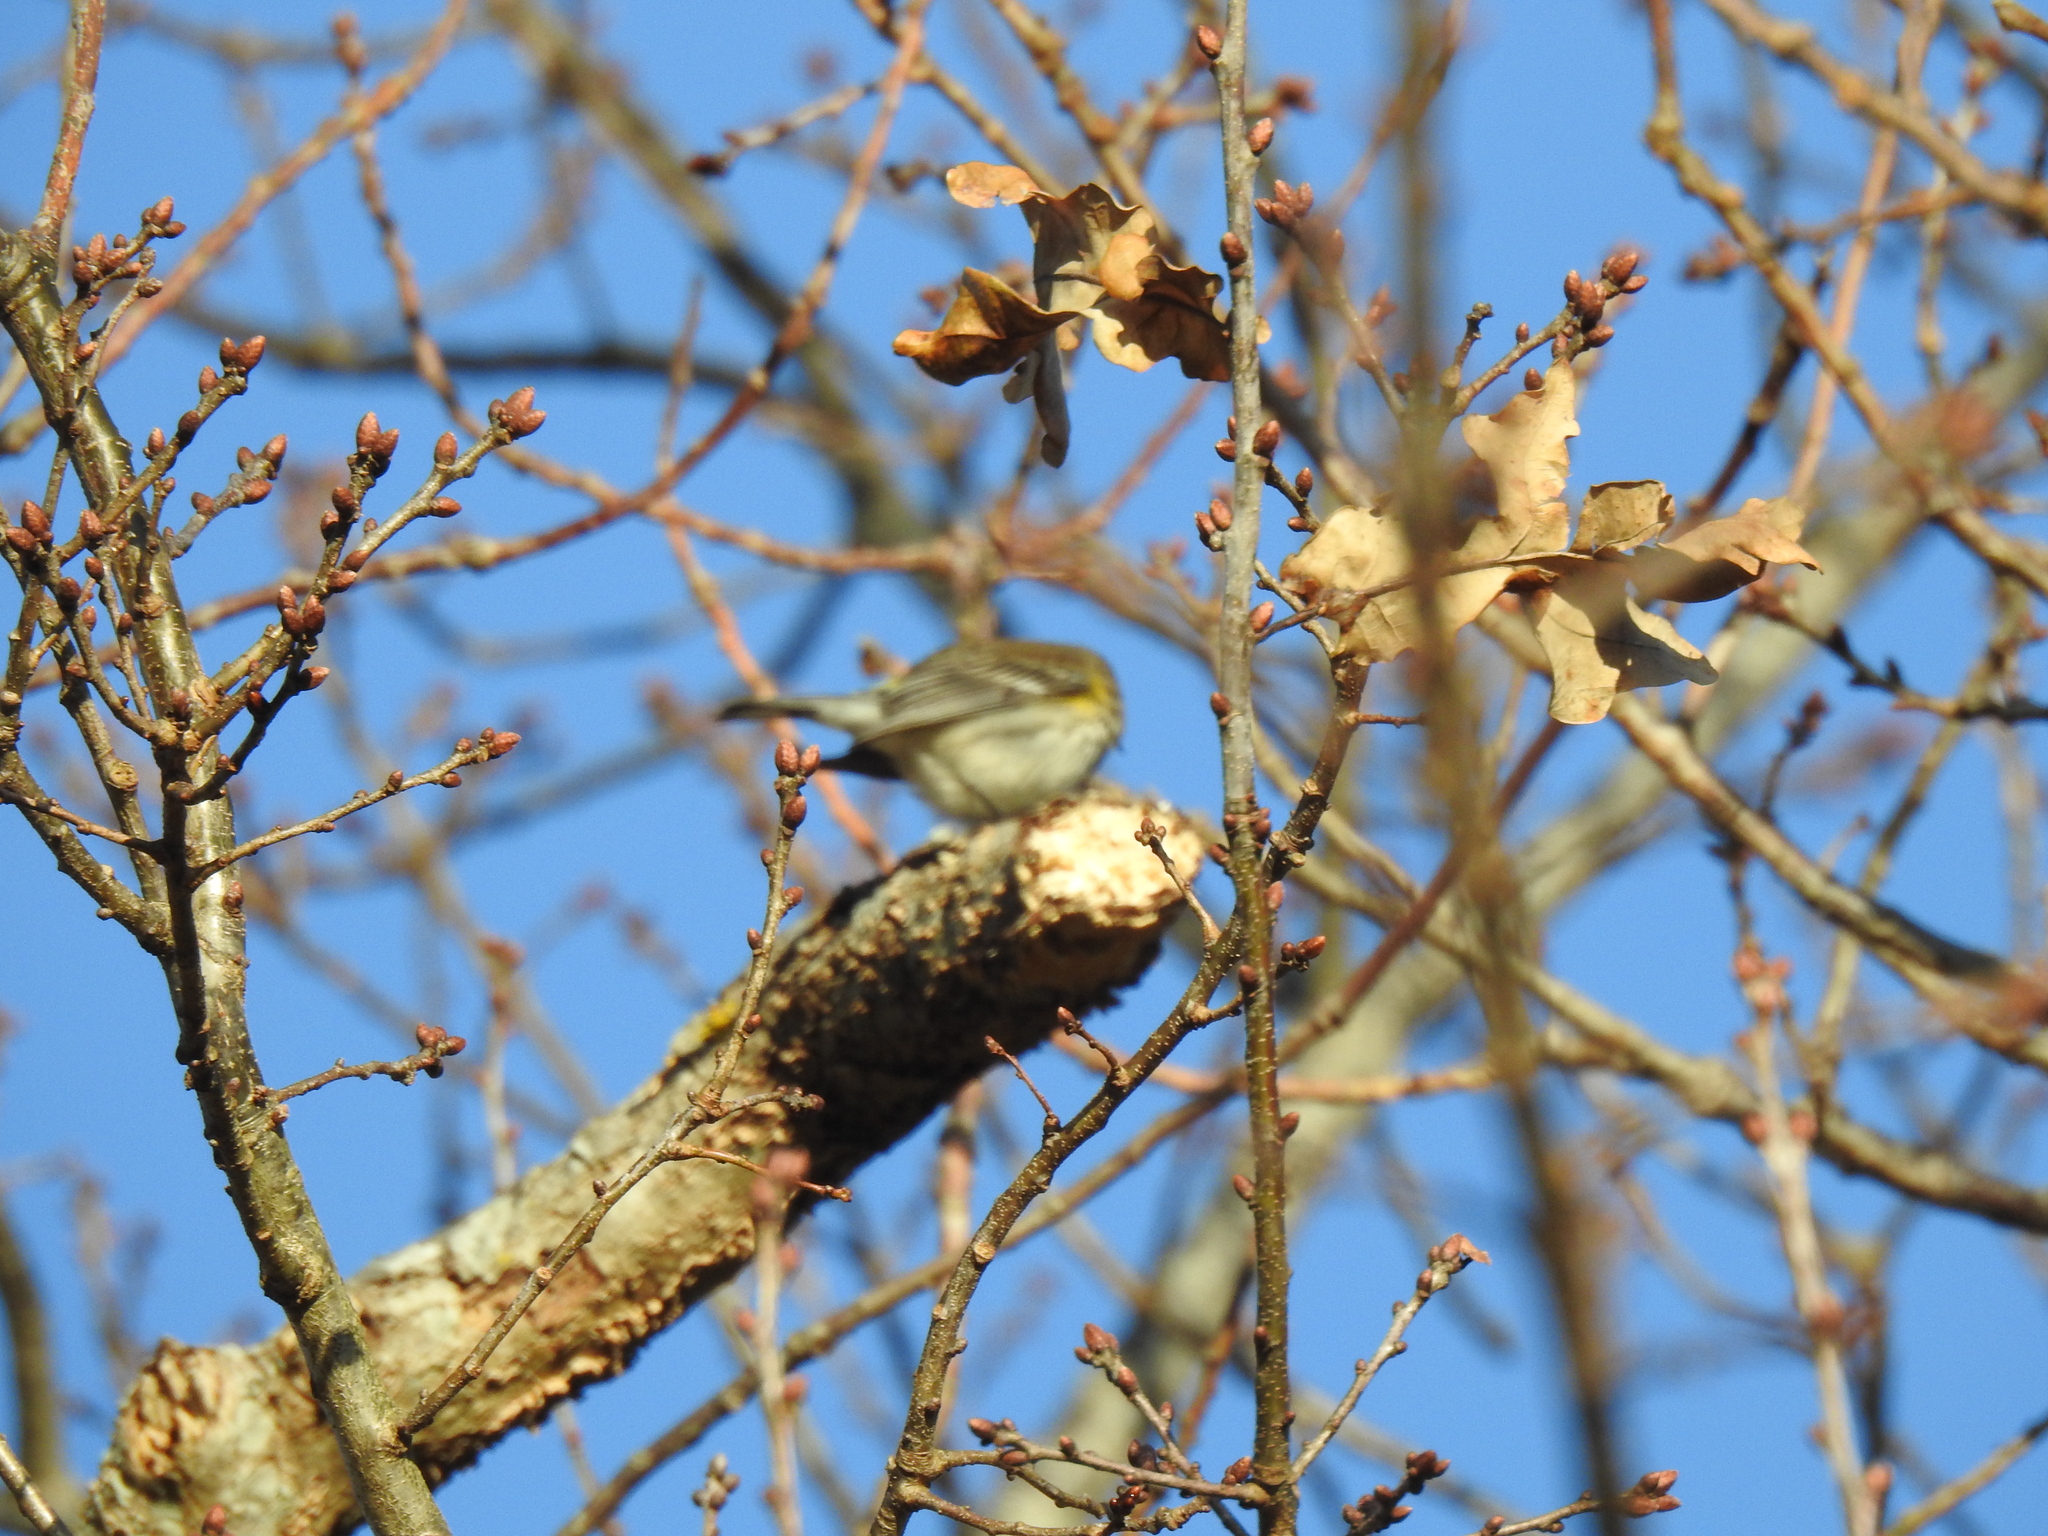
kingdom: Animalia
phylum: Chordata
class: Aves
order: Passeriformes
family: Parulidae
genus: Setophaga
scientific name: Setophaga coronata
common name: Myrtle warbler
